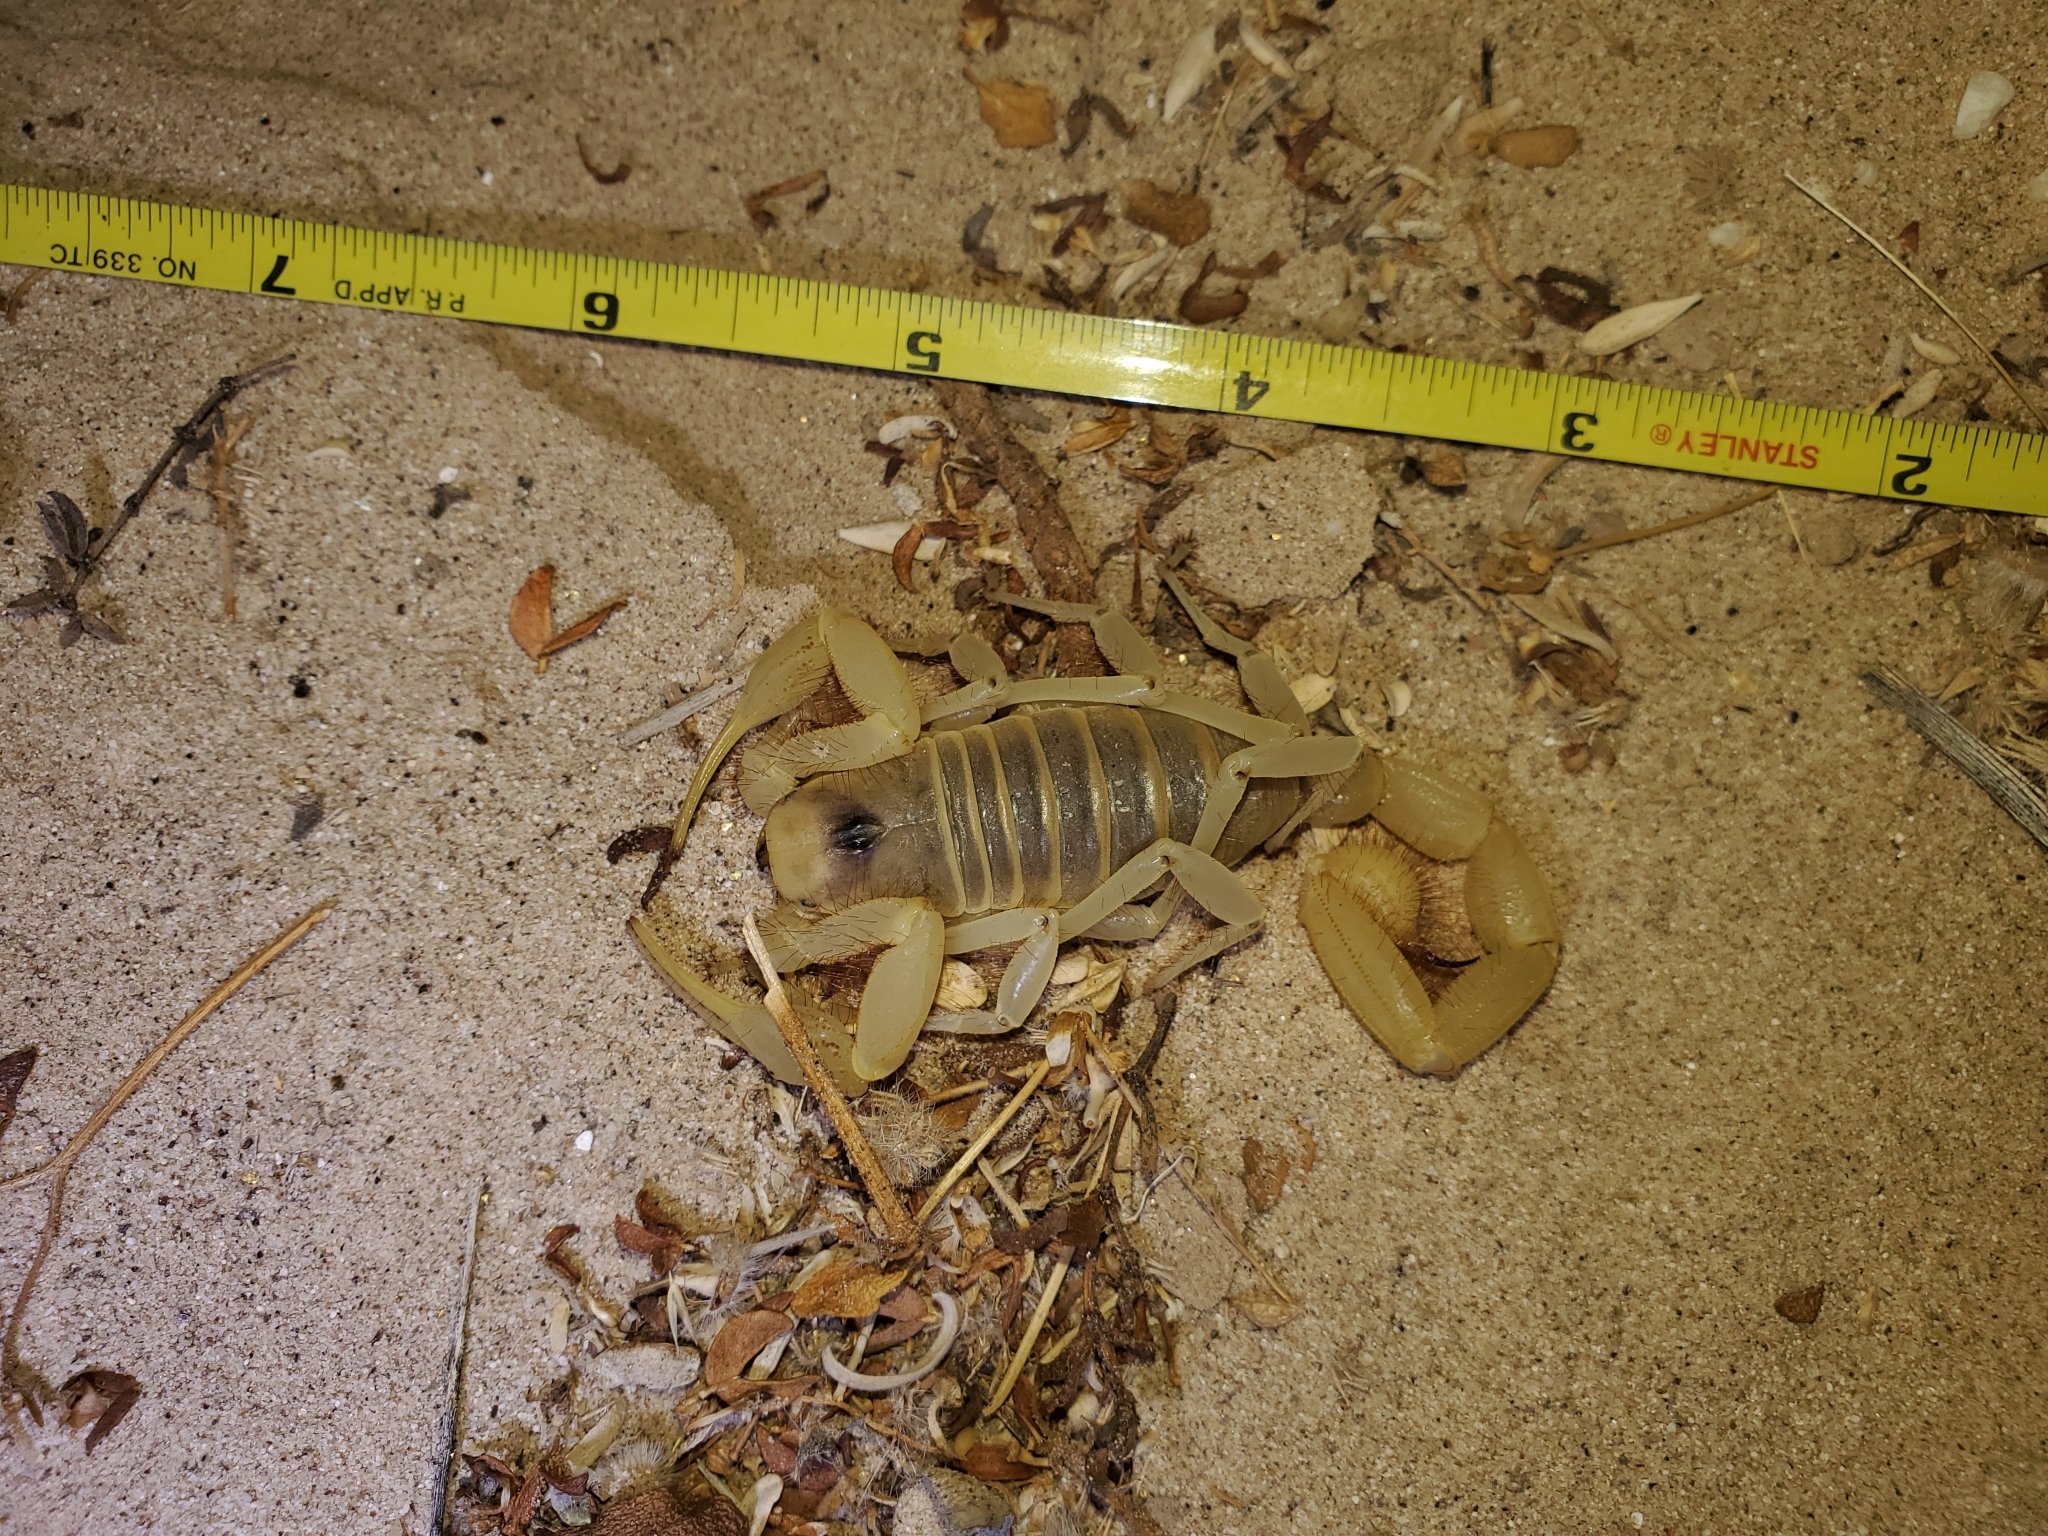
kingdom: Animalia
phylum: Arthropoda
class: Arachnida
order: Scorpiones
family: Hadruridae
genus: Hadrurus
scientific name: Hadrurus arizonensis
